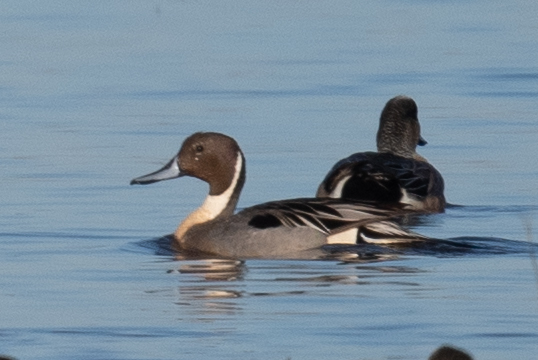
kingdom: Animalia
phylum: Chordata
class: Aves
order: Anseriformes
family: Anatidae
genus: Anas
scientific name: Anas acuta
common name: Northern pintail
